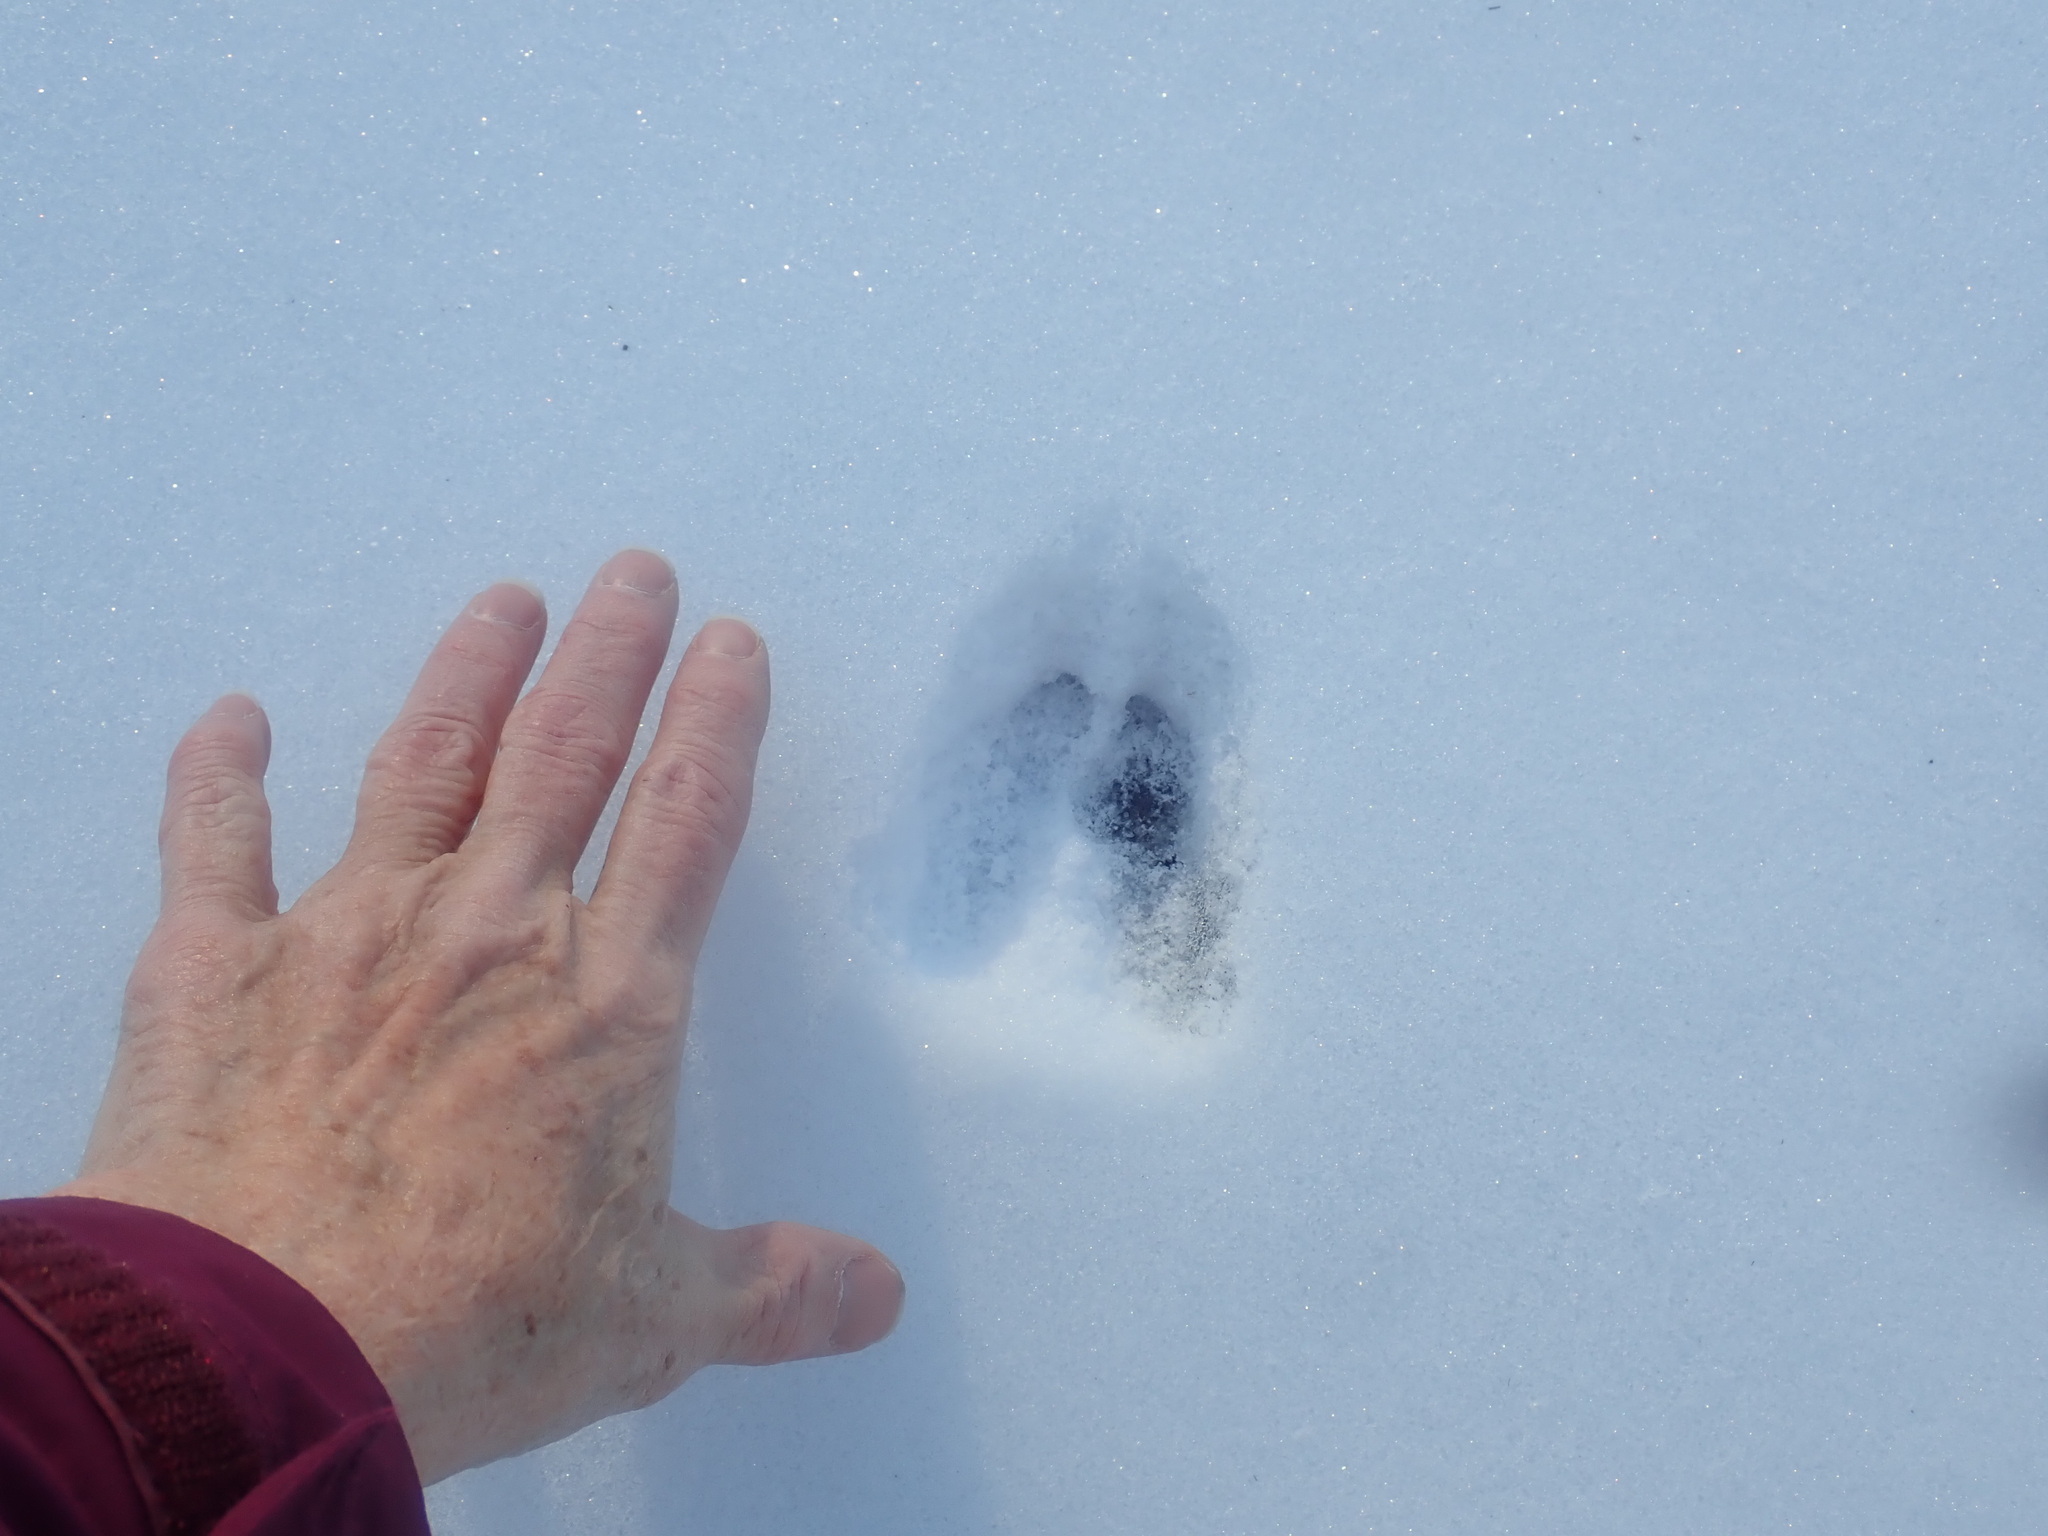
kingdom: Animalia
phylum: Chordata
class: Mammalia
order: Artiodactyla
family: Cervidae
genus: Odocoileus
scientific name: Odocoileus virginianus
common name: White-tailed deer
